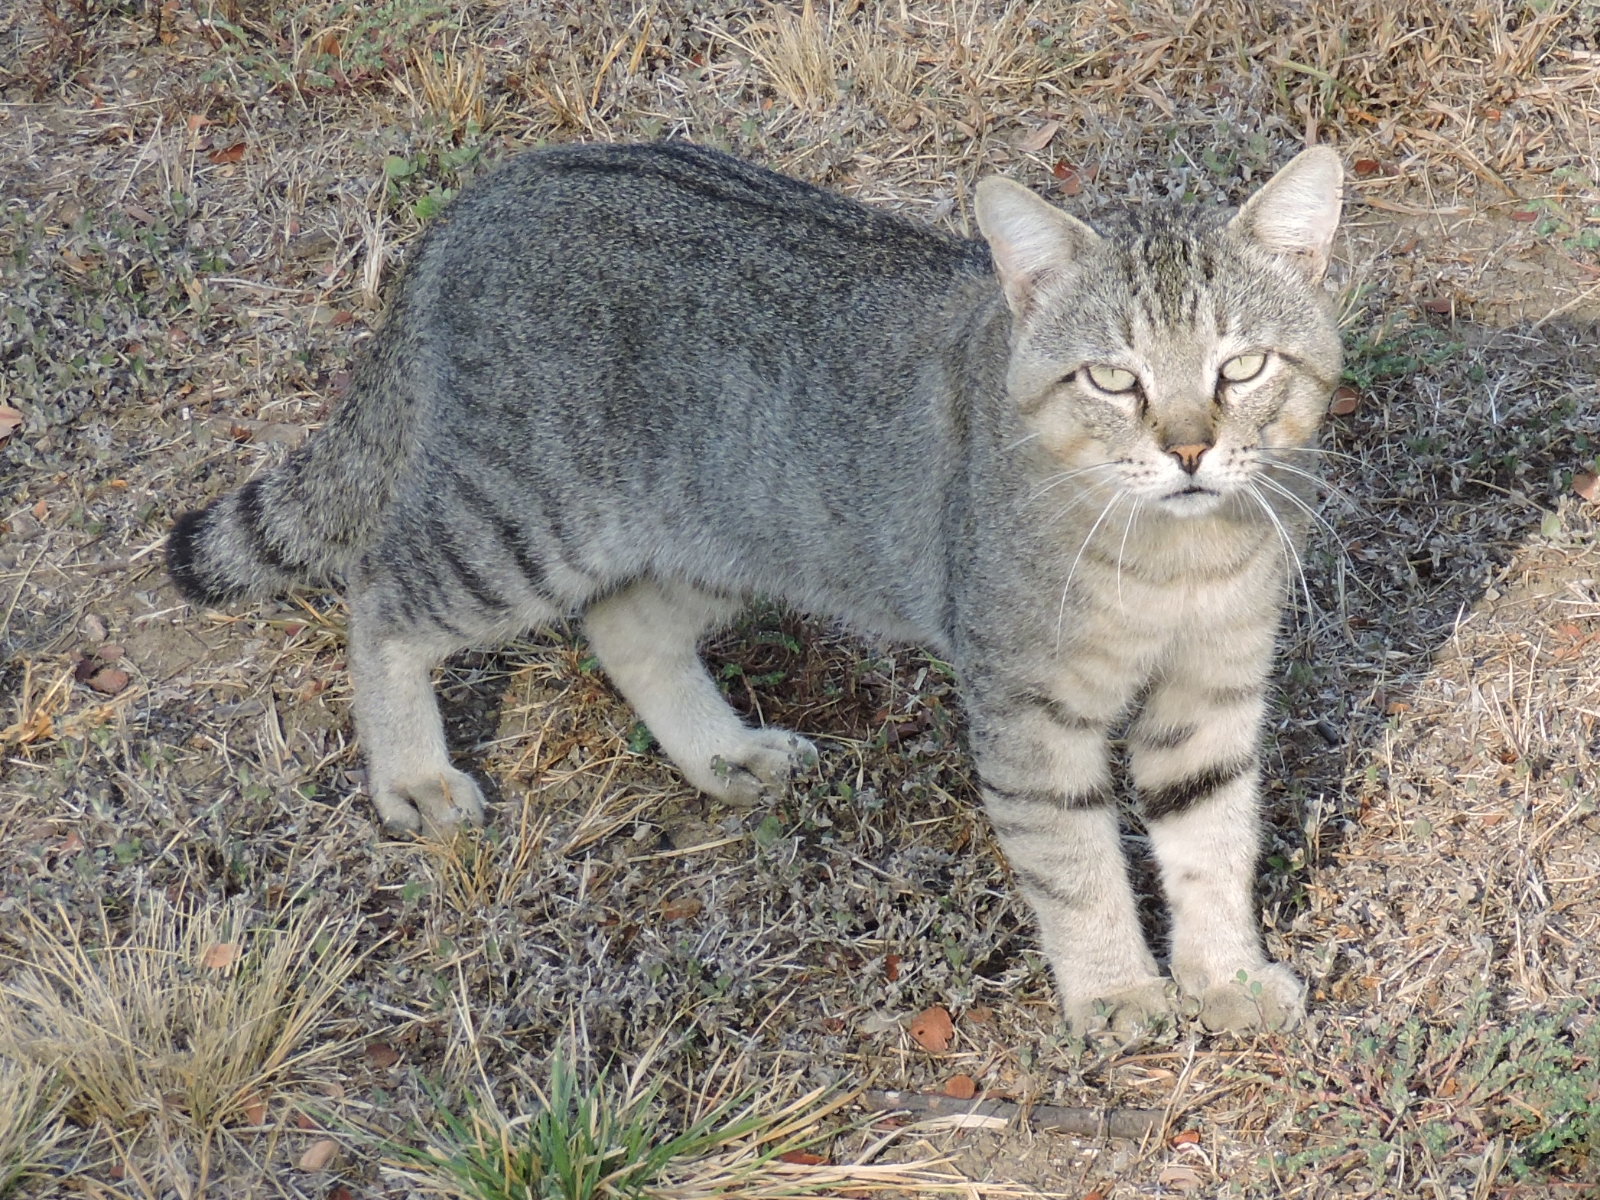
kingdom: Animalia
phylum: Chordata
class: Mammalia
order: Carnivora
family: Felidae
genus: Felis
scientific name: Felis catus
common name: Domestic cat
